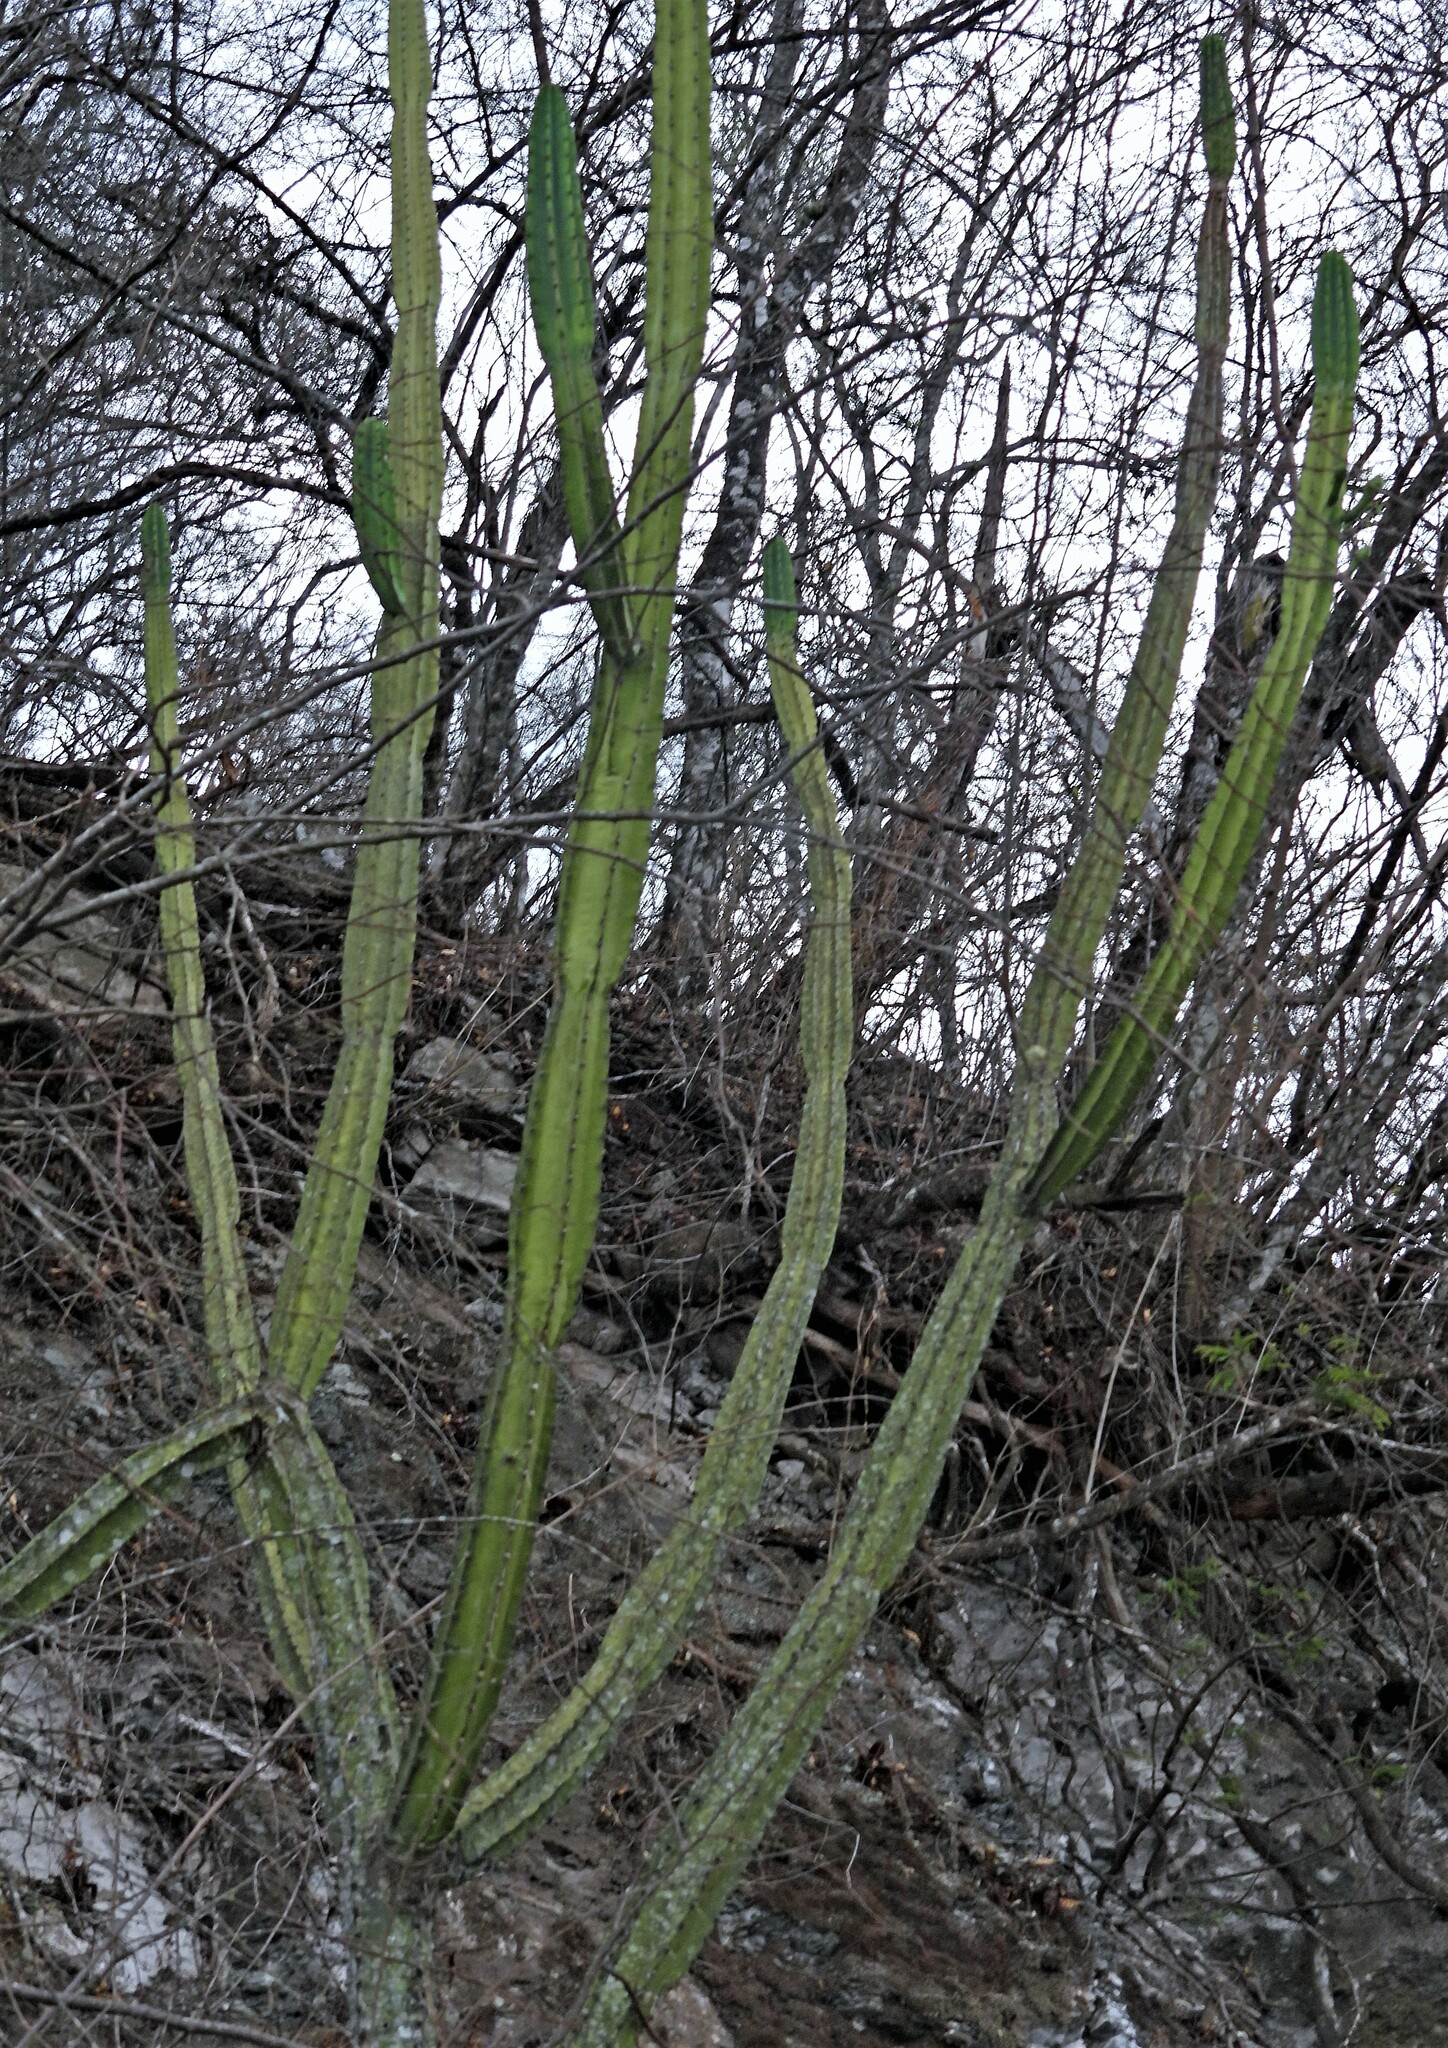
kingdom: Plantae
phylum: Tracheophyta
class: Magnoliopsida
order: Caryophyllales
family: Cactaceae
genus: Cereus
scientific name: Cereus hankeanus
